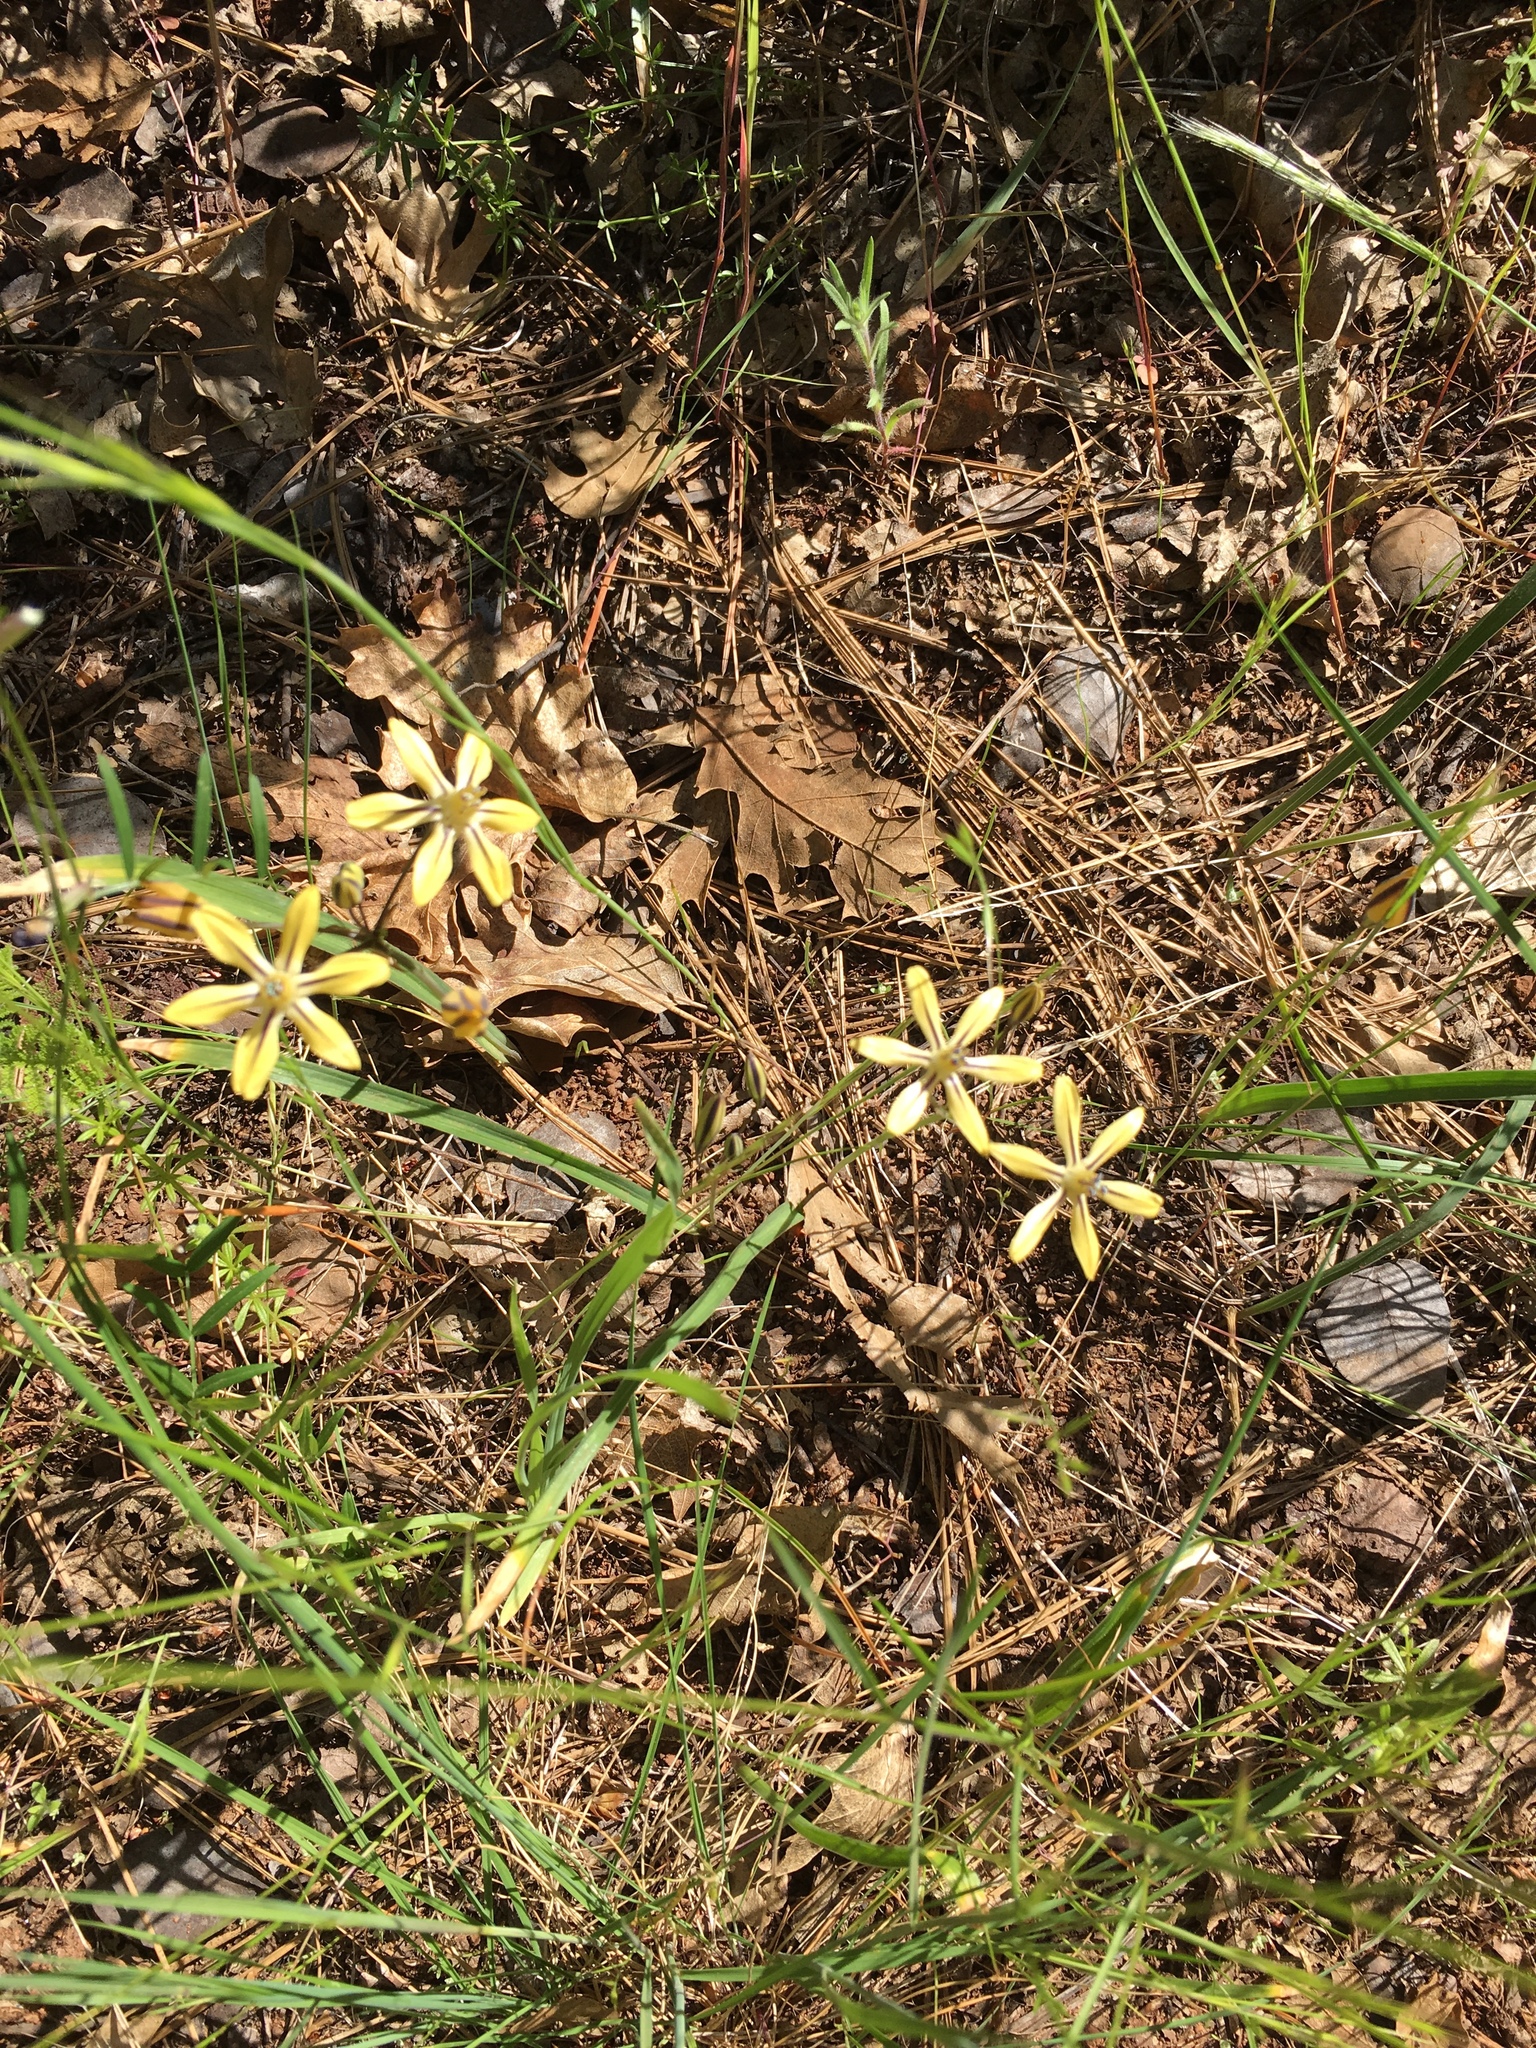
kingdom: Plantae
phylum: Tracheophyta
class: Liliopsida
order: Asparagales
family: Asparagaceae
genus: Triteleia
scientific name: Triteleia ixioides
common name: Yellow-brodiaea
